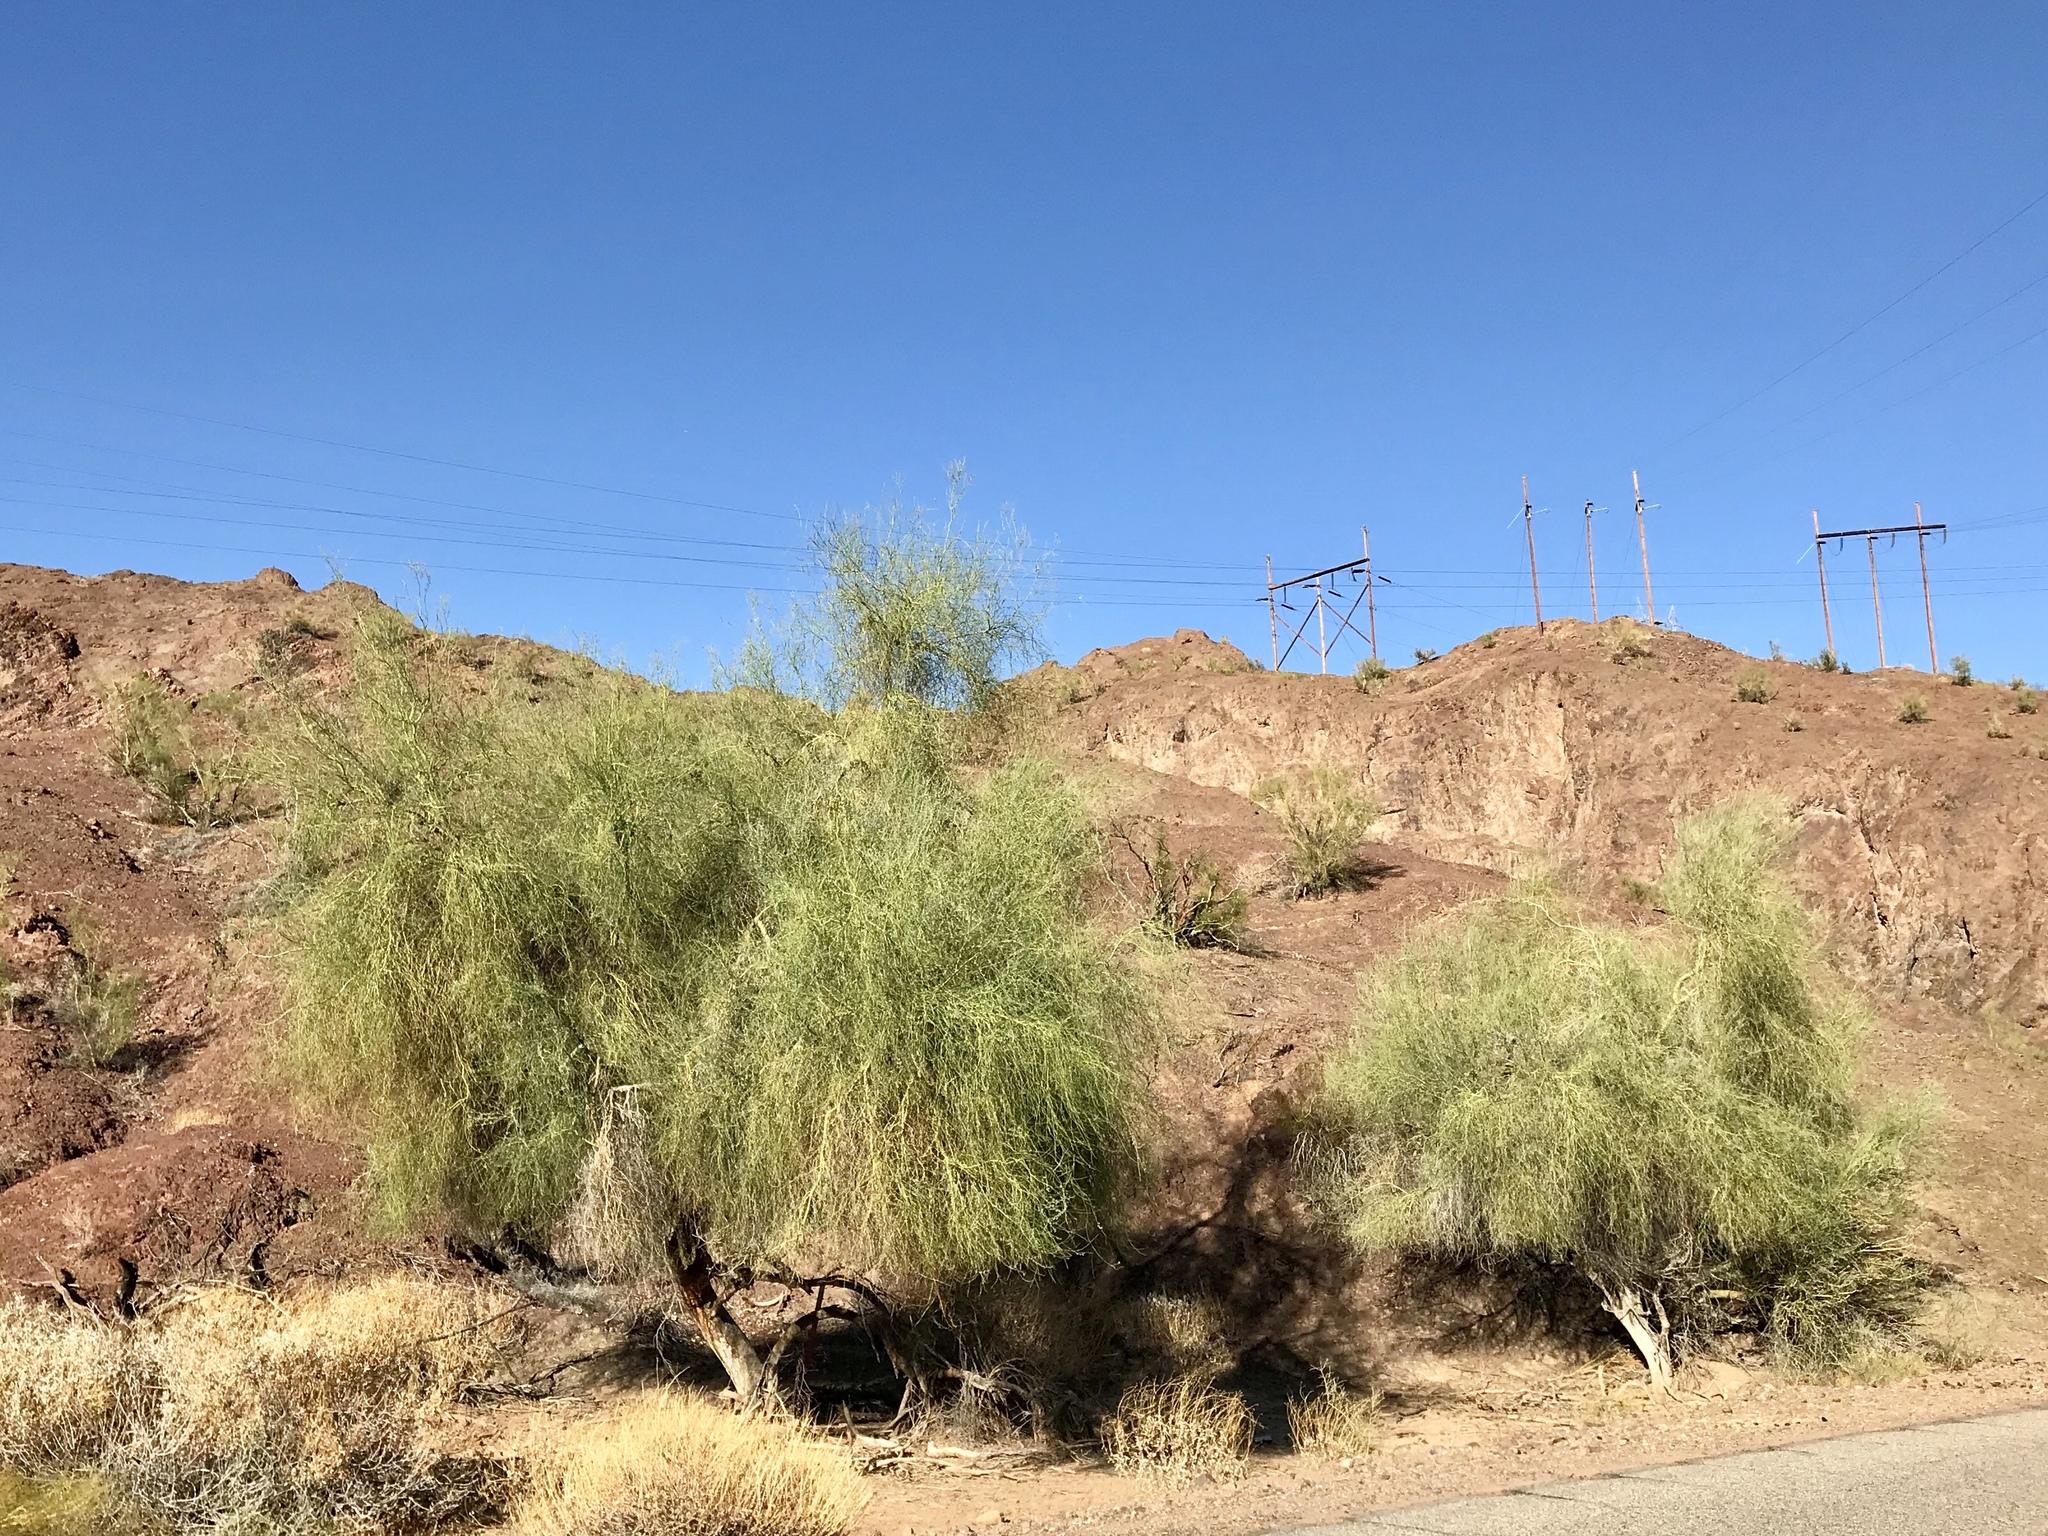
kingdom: Plantae
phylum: Tracheophyta
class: Magnoliopsida
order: Fabales
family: Fabaceae
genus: Parkinsonia
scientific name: Parkinsonia florida
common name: Blue paloverde
